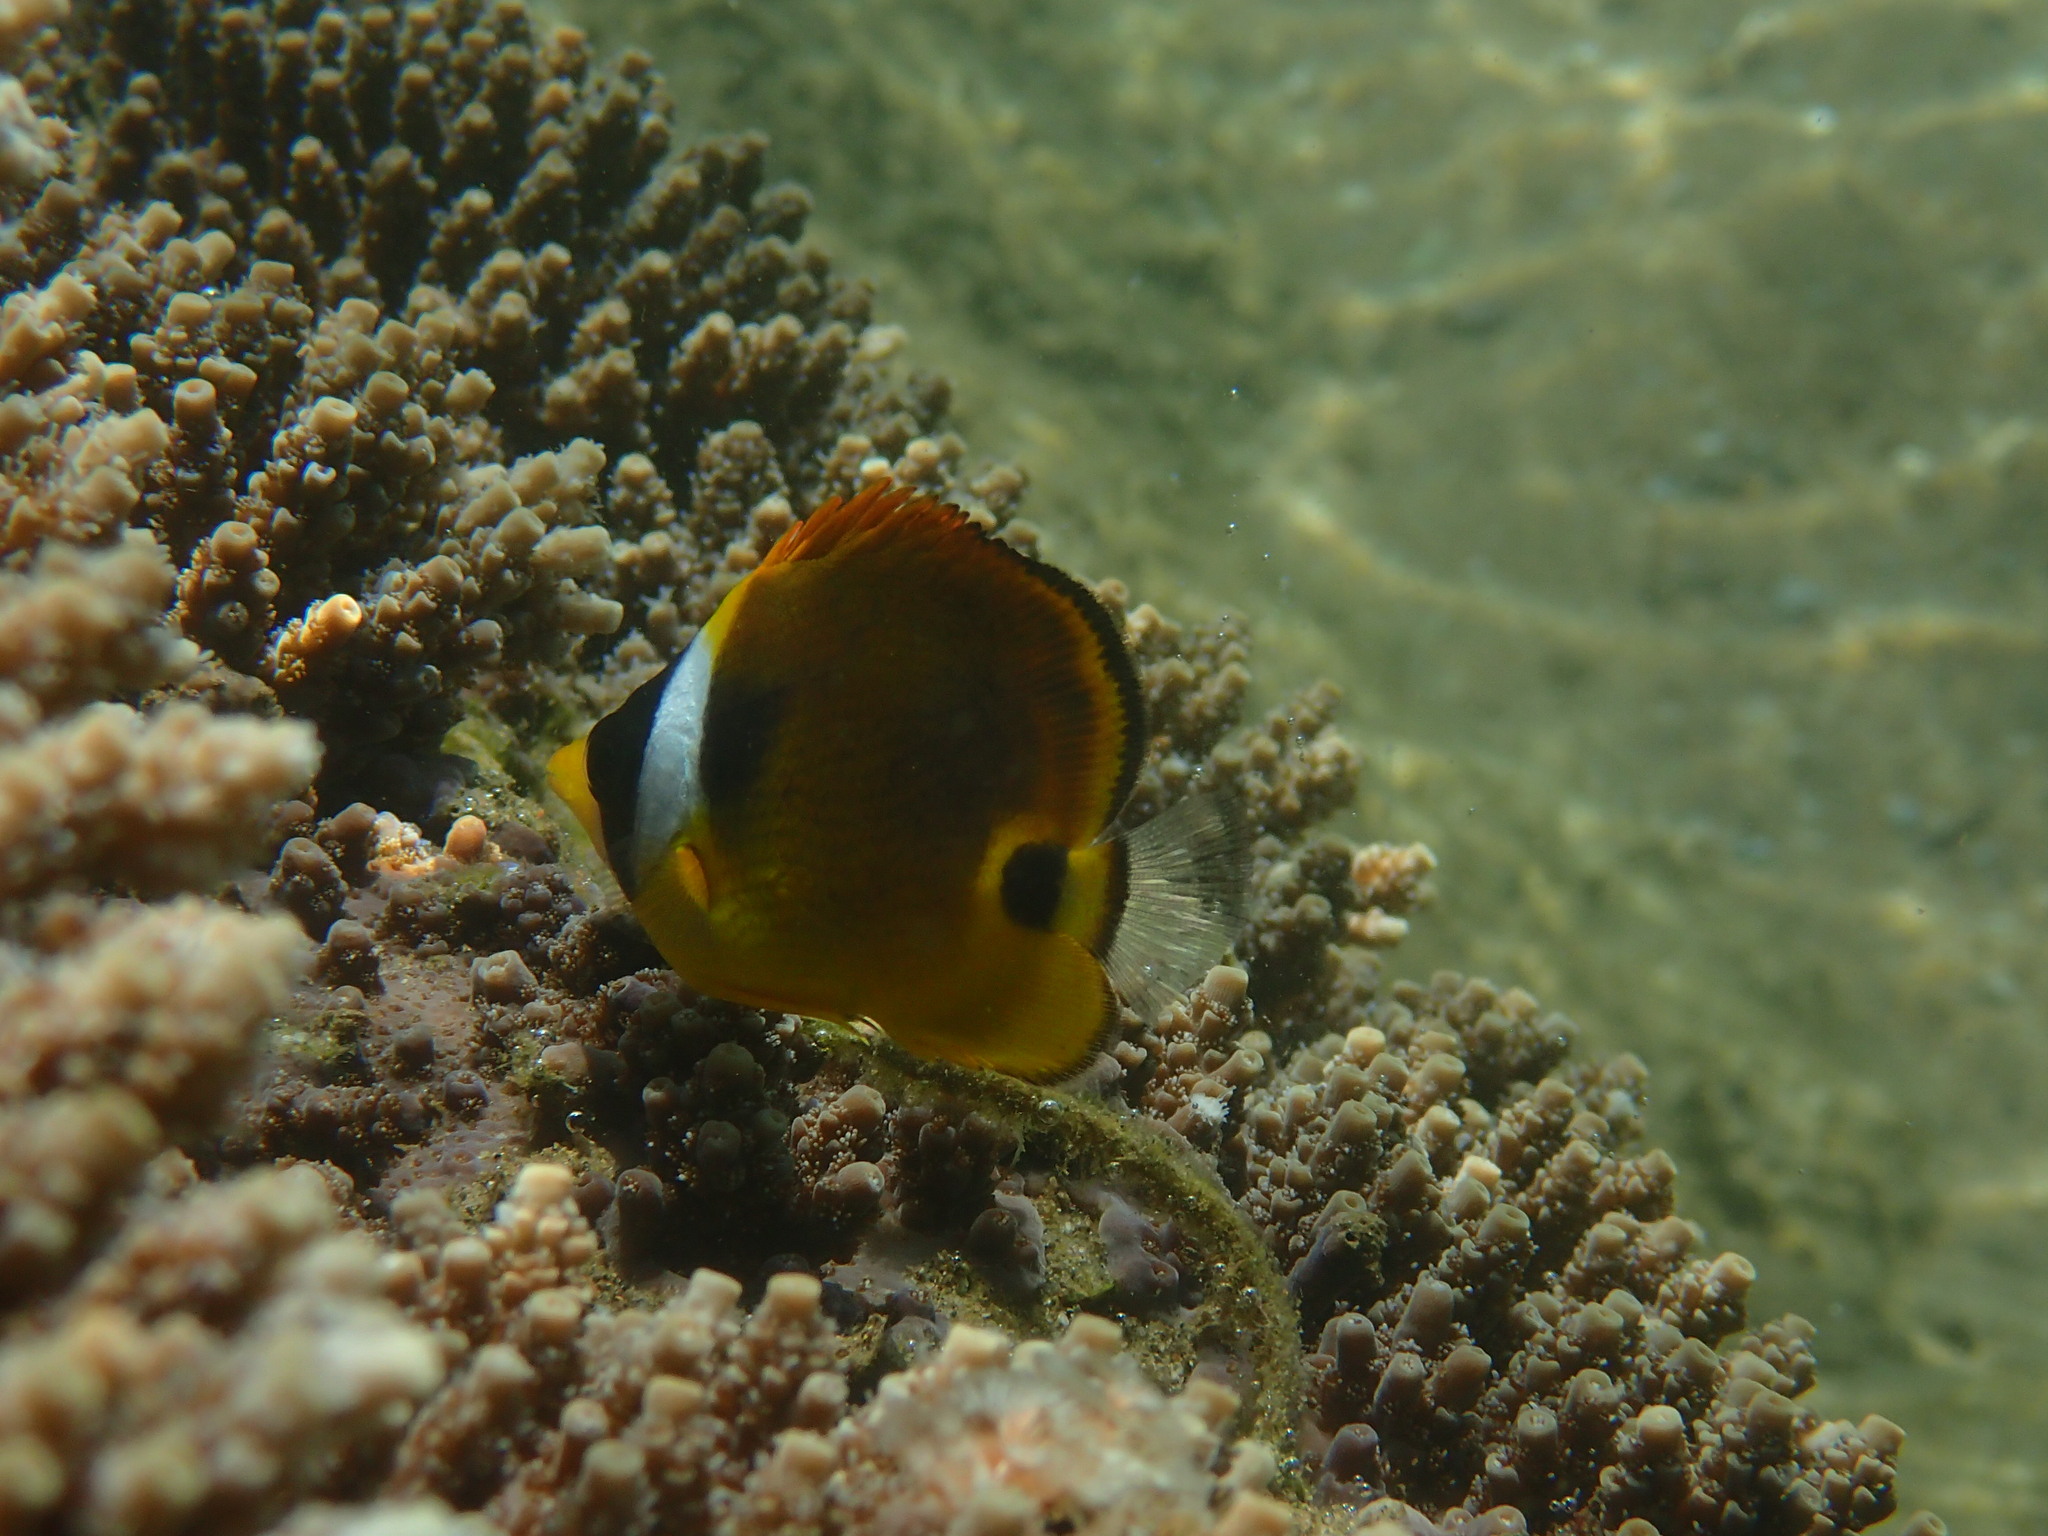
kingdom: Animalia
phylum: Chordata
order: Perciformes
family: Chaetodontidae
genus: Chaetodon
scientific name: Chaetodon lunula
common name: Raccoon butterflyfish
